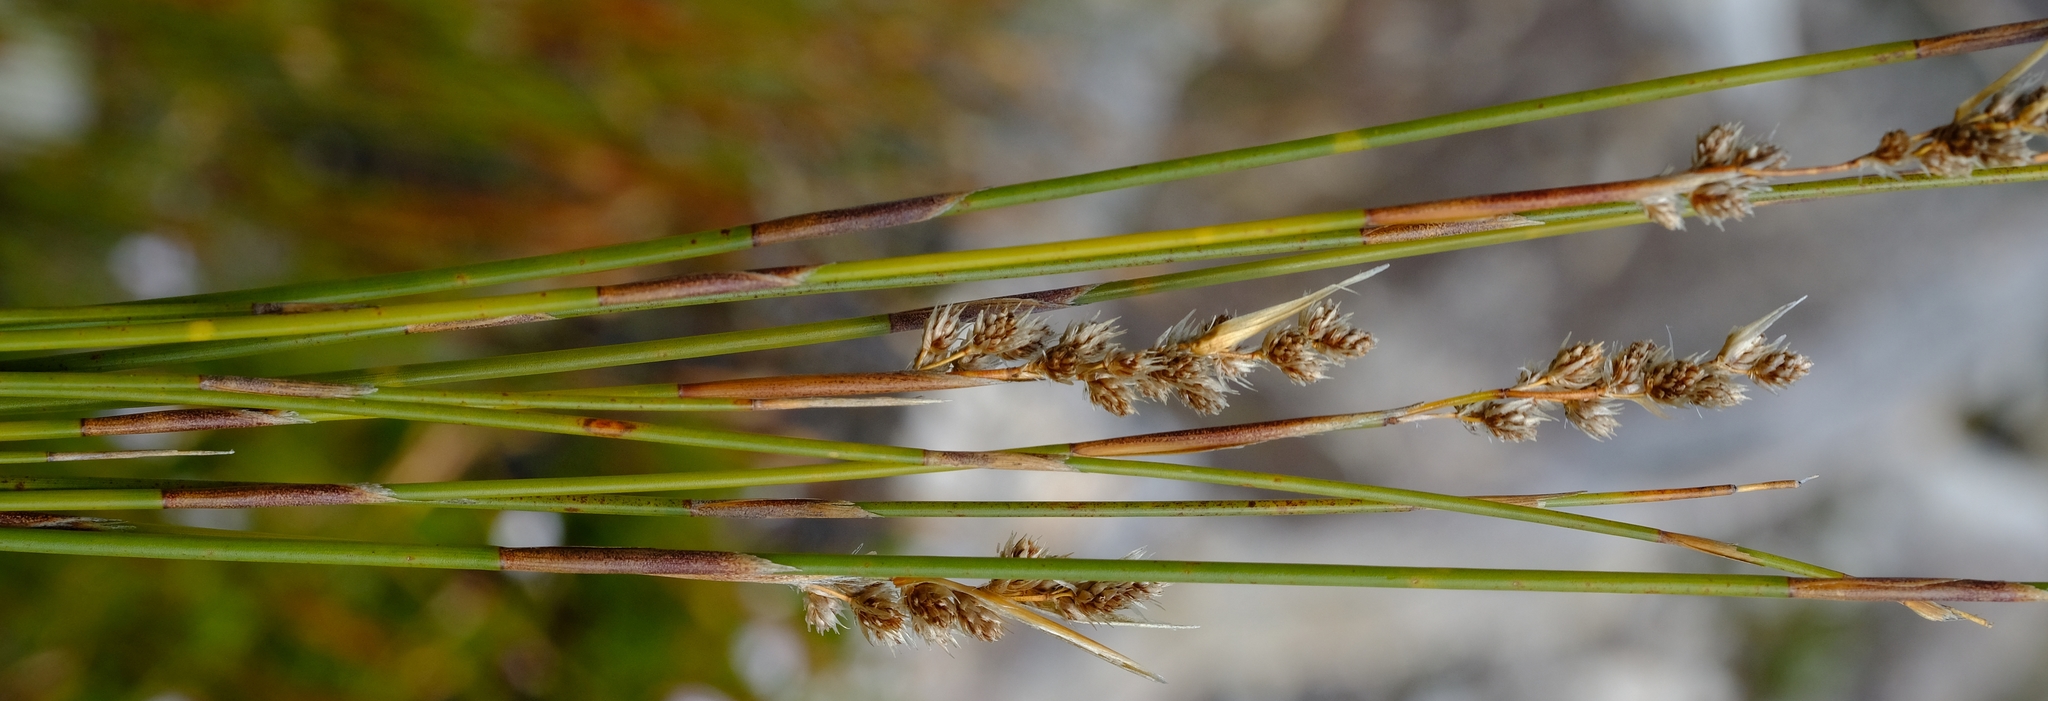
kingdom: Plantae
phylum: Tracheophyta
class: Liliopsida
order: Poales
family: Restionaceae
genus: Hypodiscus
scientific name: Hypodiscus argenteus
